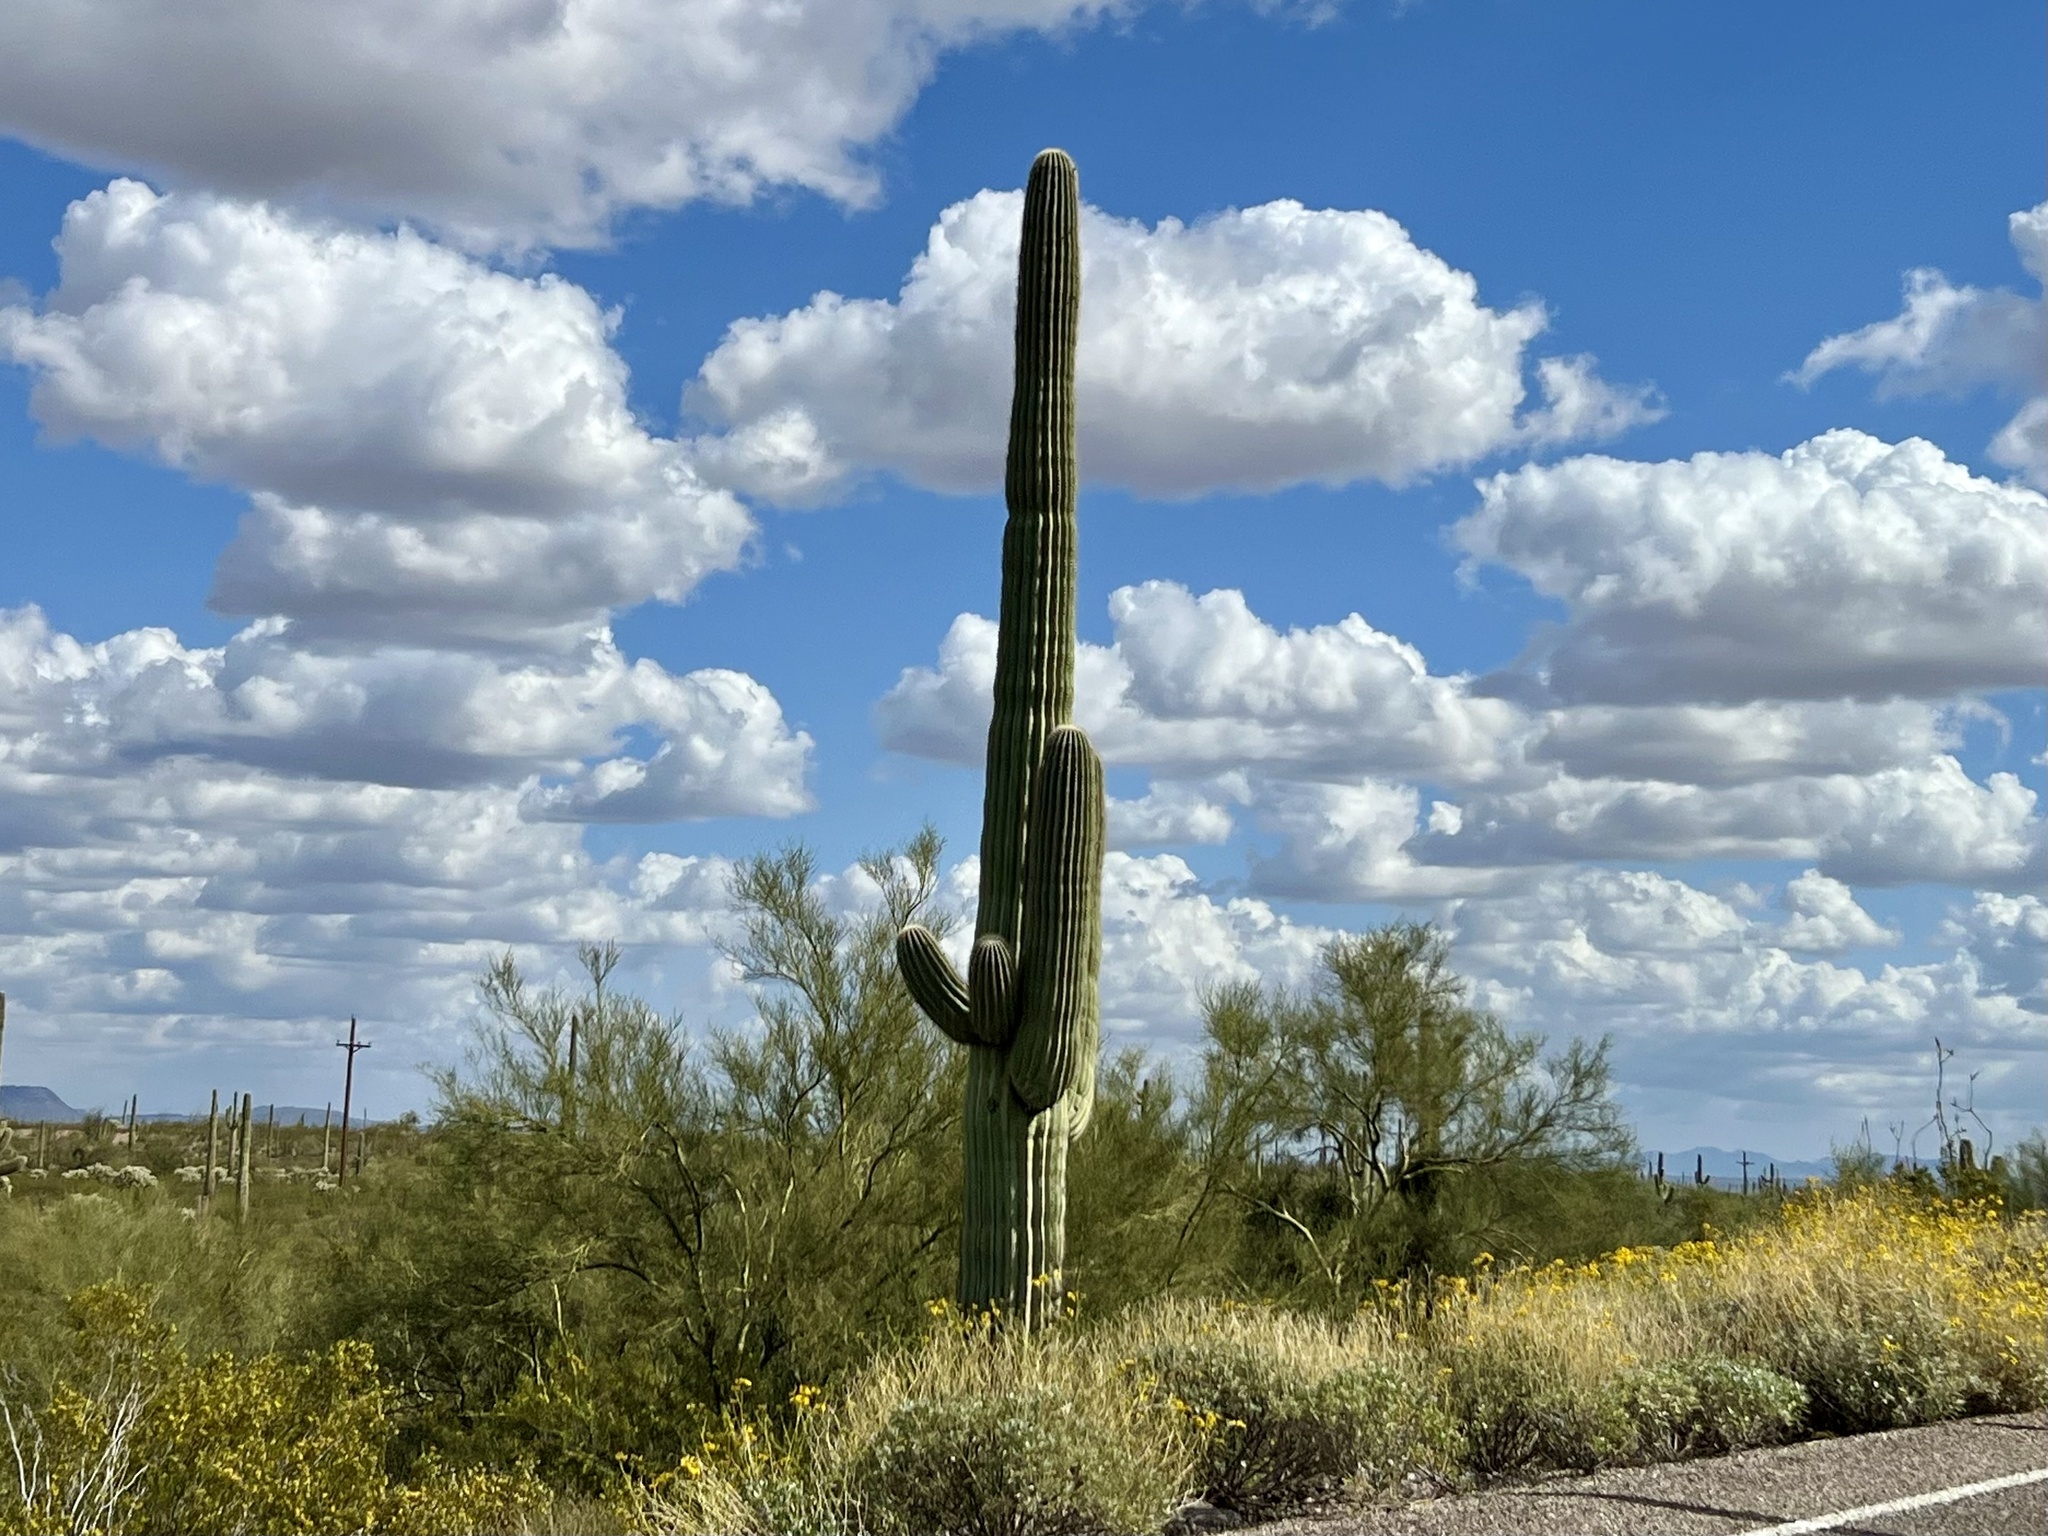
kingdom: Plantae
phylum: Tracheophyta
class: Magnoliopsida
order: Caryophyllales
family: Cactaceae
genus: Carnegiea
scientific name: Carnegiea gigantea
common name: Saguaro
